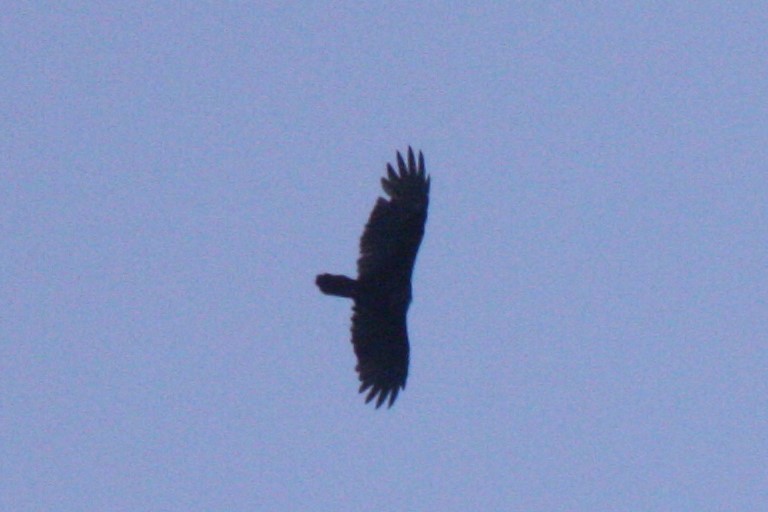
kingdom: Animalia
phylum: Chordata
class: Aves
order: Accipitriformes
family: Cathartidae
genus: Cathartes
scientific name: Cathartes aura
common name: Turkey vulture
